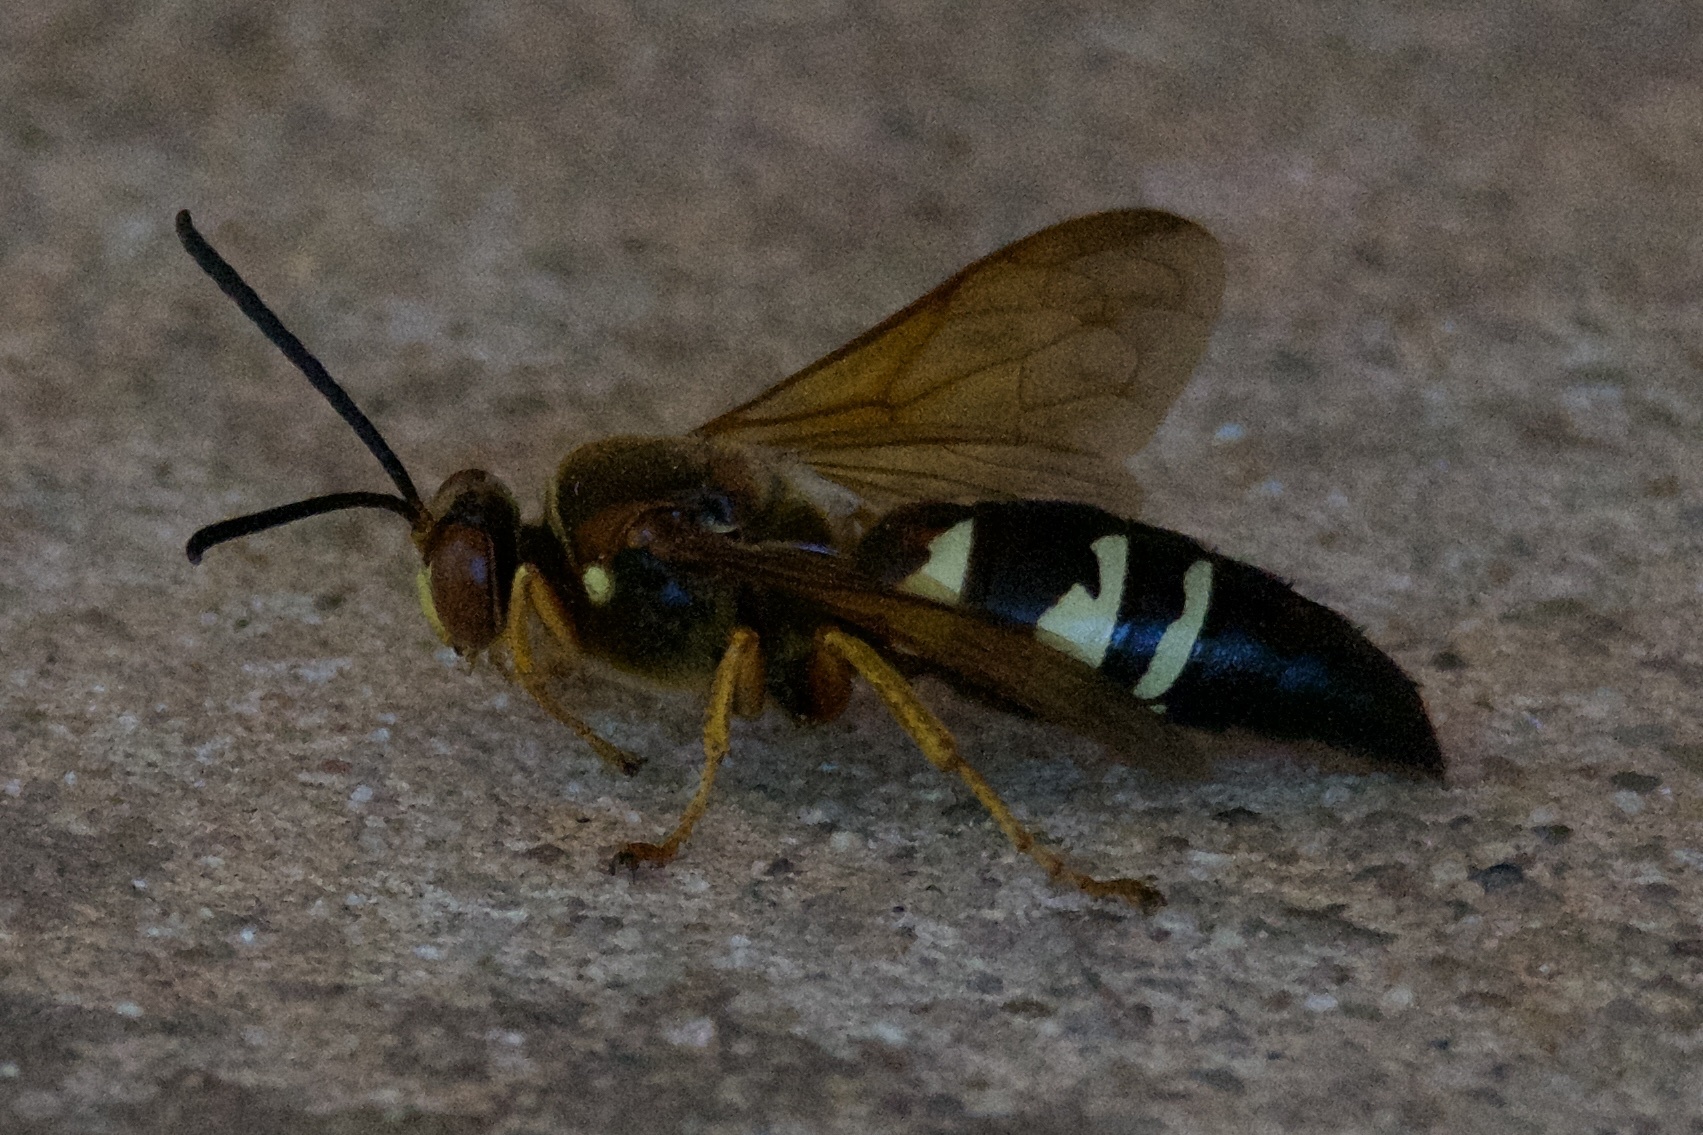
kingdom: Animalia
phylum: Arthropoda
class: Insecta
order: Hymenoptera
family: Crabronidae
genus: Sphecius
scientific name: Sphecius speciosus
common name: Cicada killer
